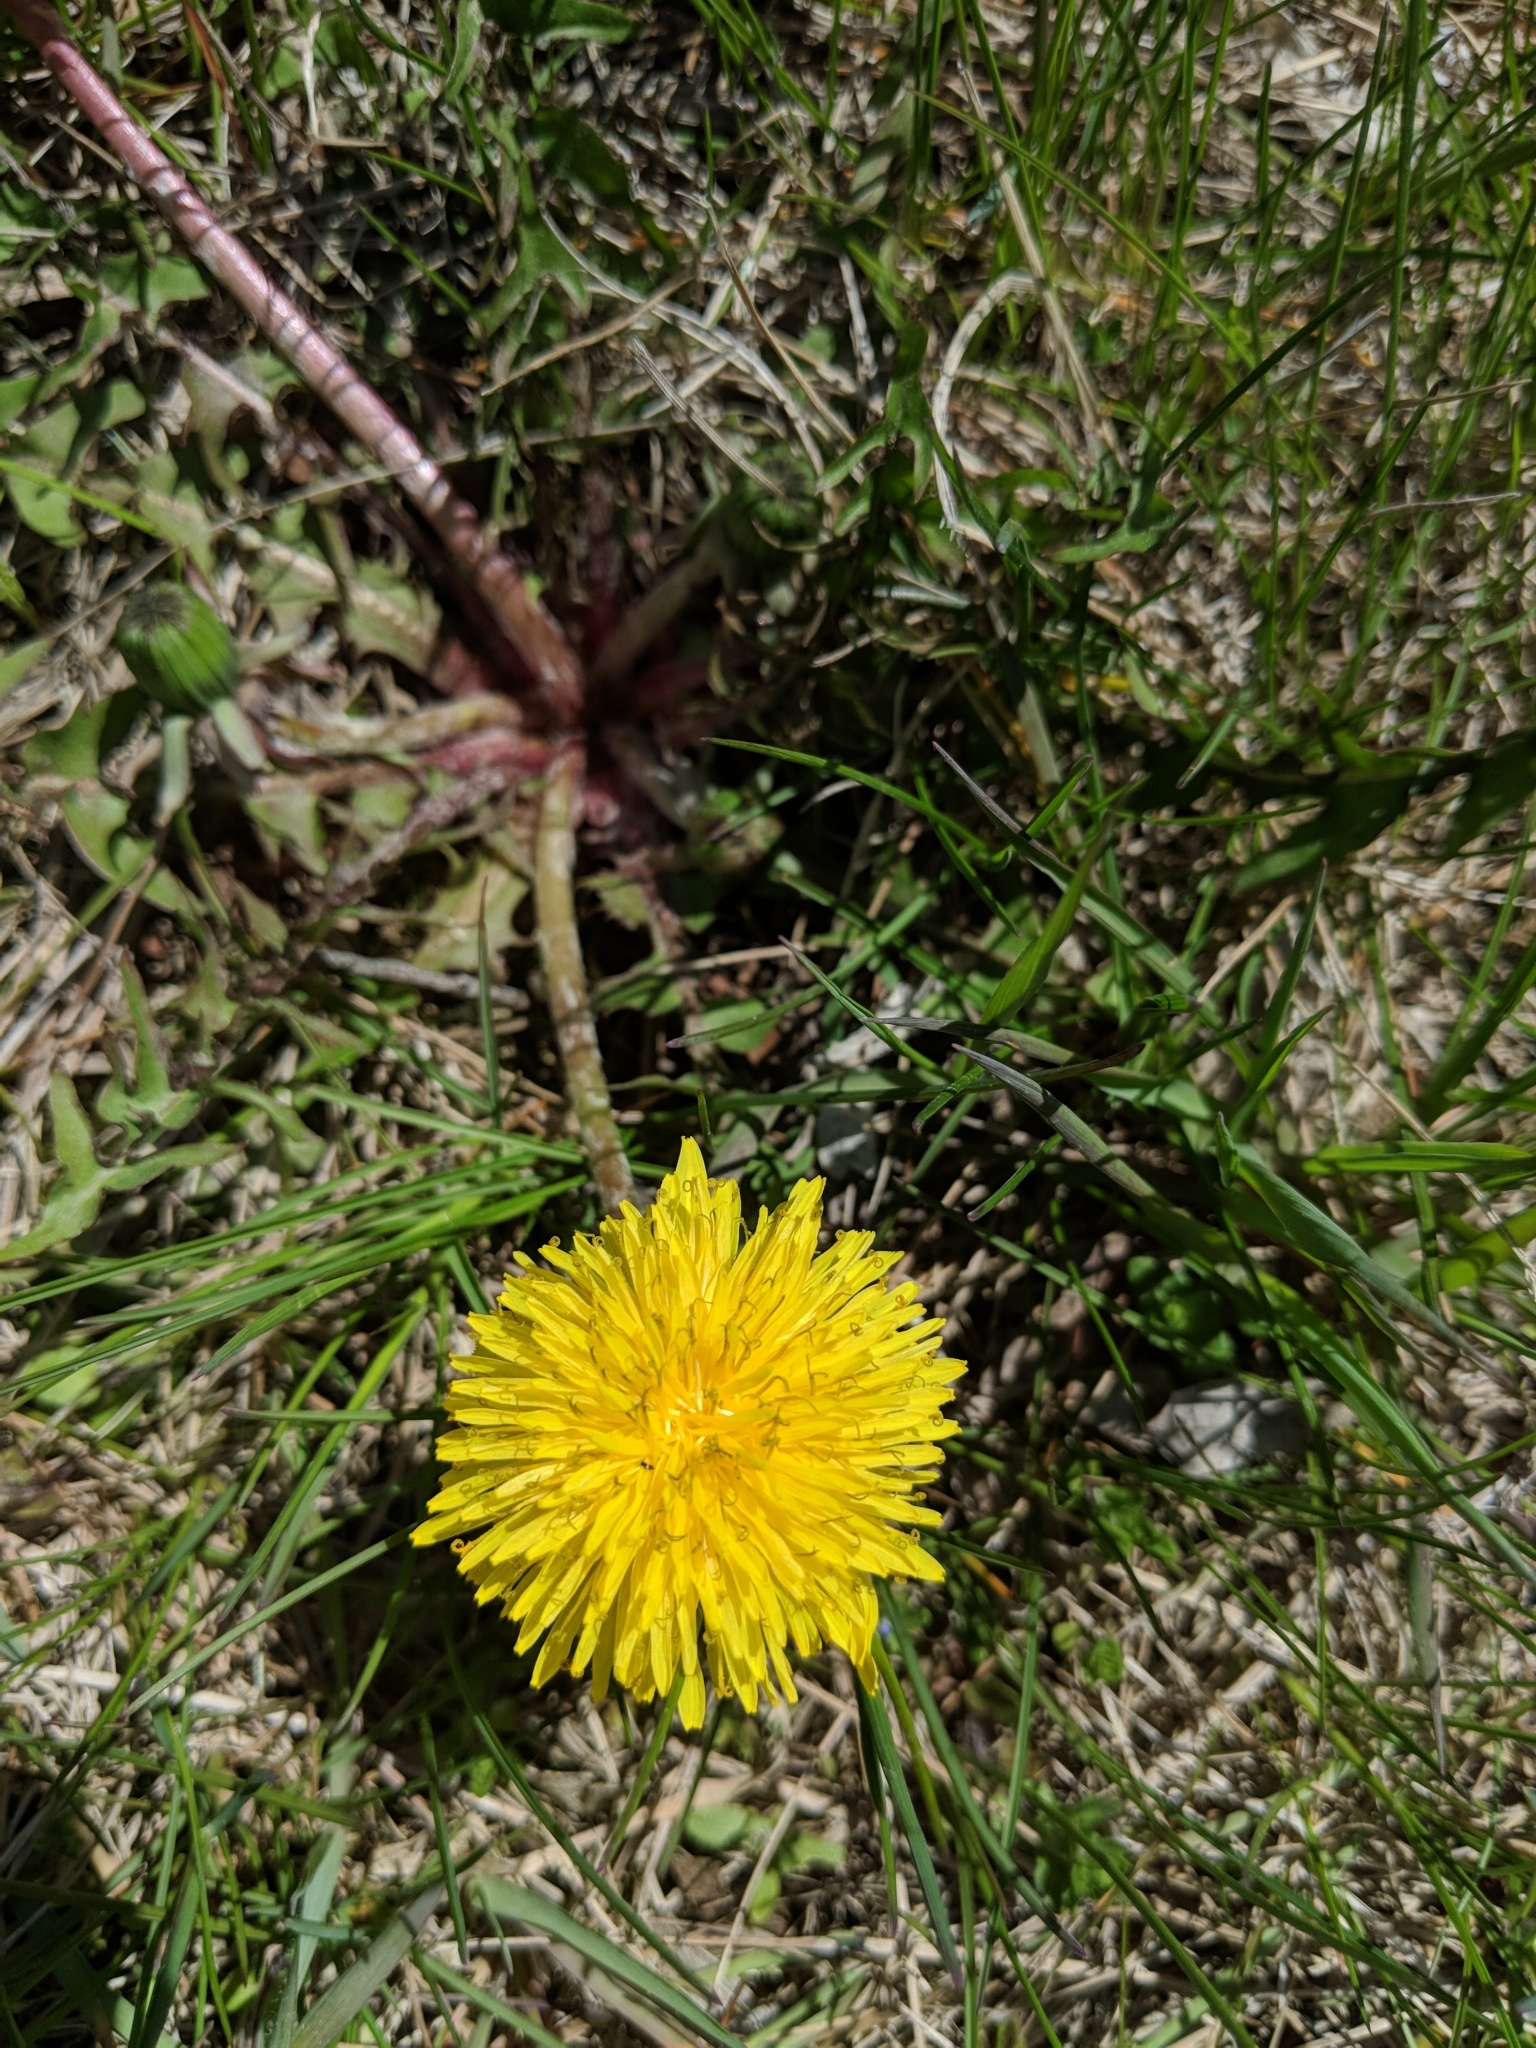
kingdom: Plantae
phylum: Tracheophyta
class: Magnoliopsida
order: Asterales
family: Asteraceae
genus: Taraxacum
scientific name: Taraxacum officinale
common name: Common dandelion
